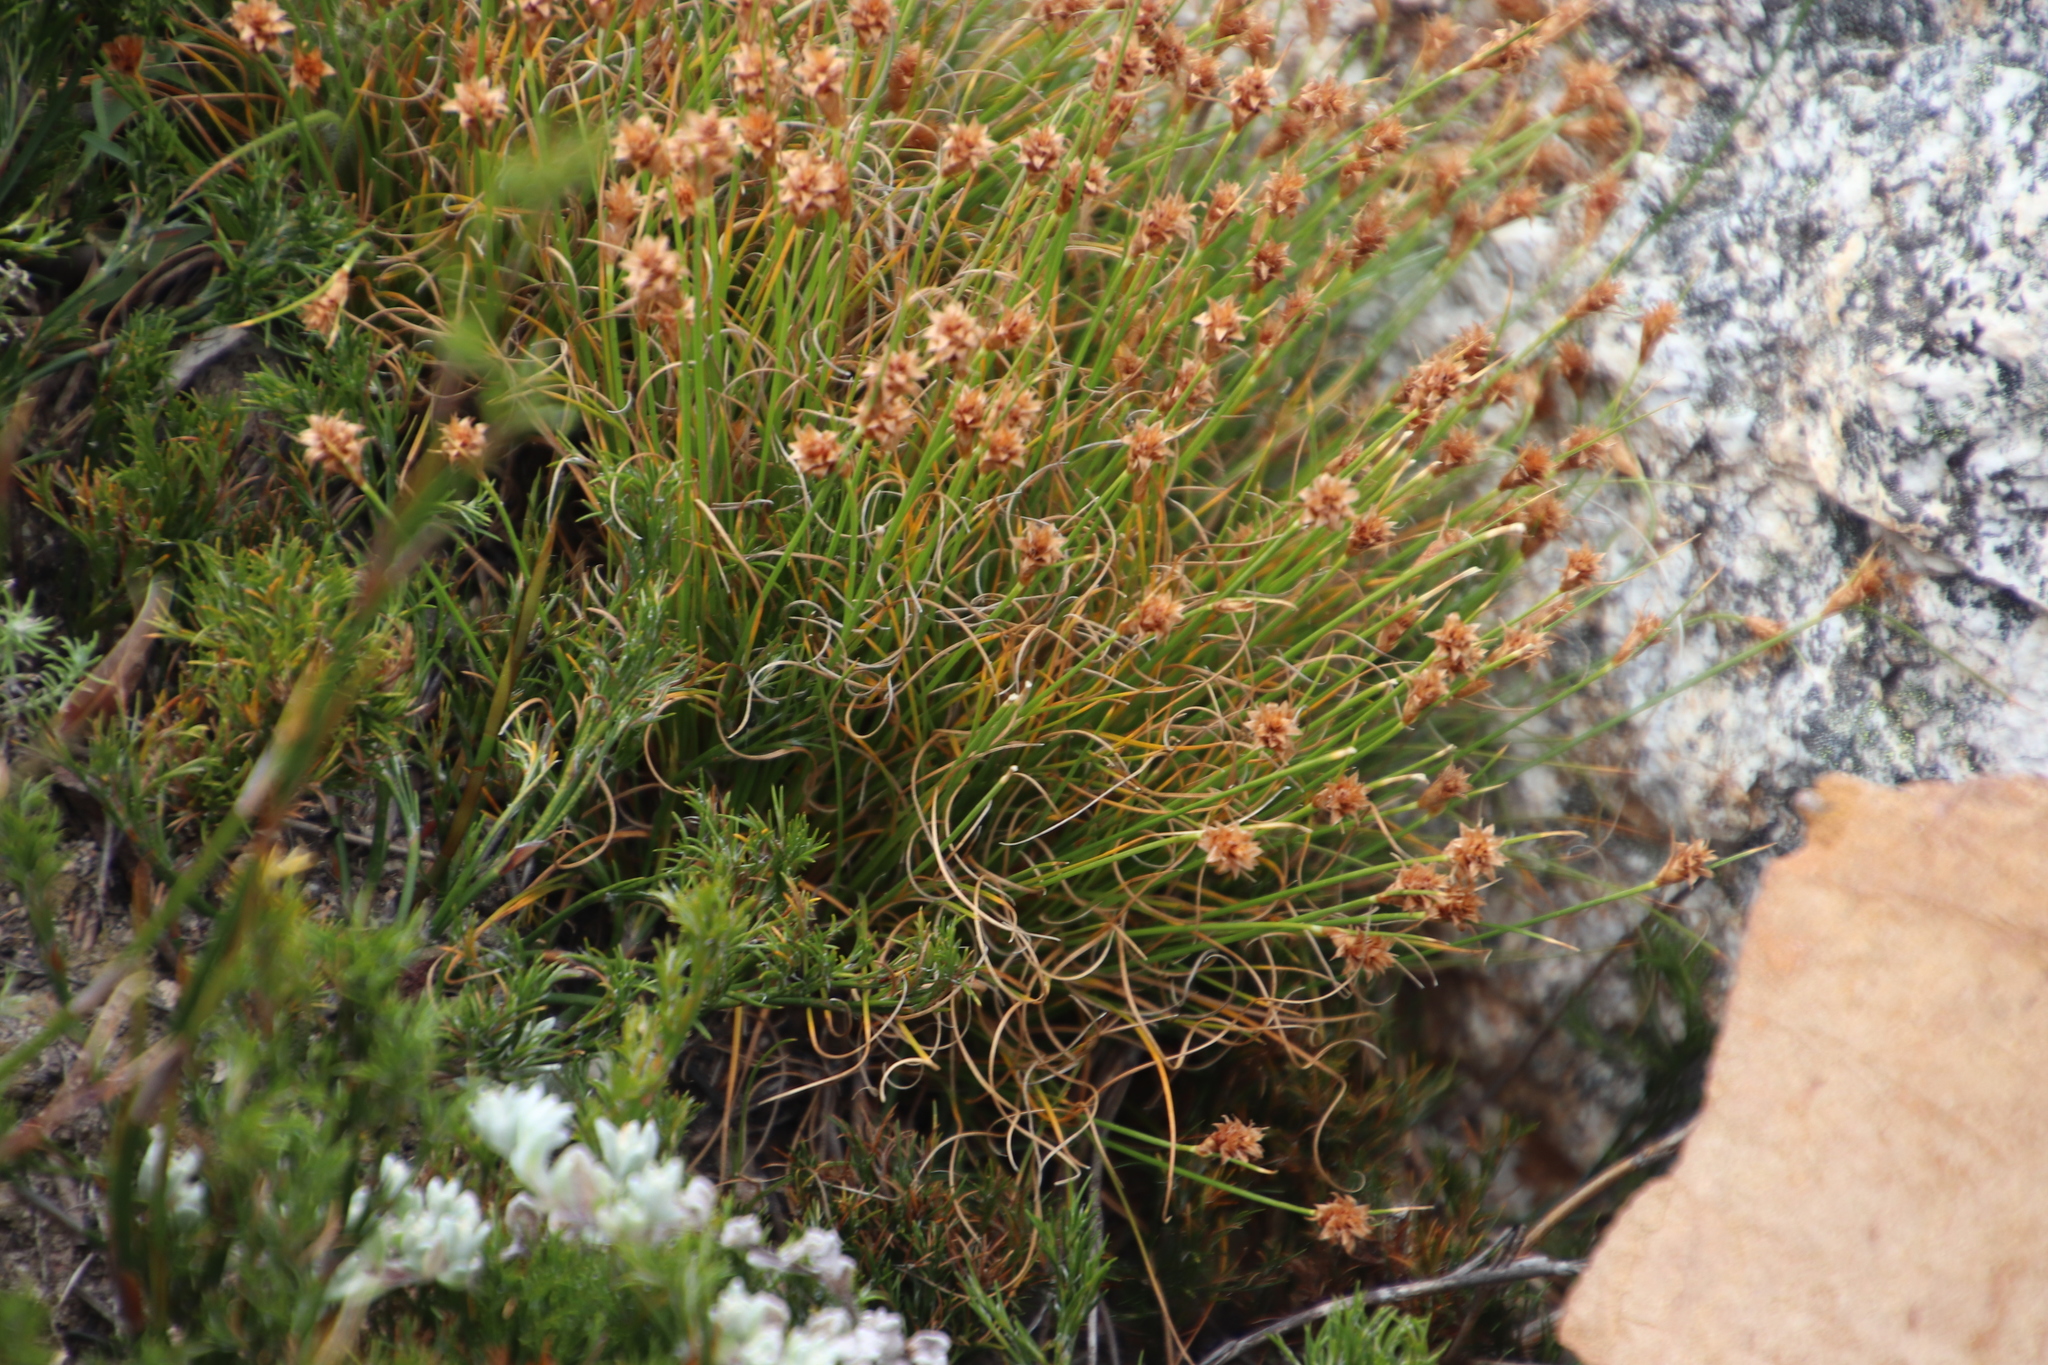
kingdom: Plantae
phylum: Tracheophyta
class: Liliopsida
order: Poales
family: Cyperaceae
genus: Ficinia
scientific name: Ficinia nigrescens
